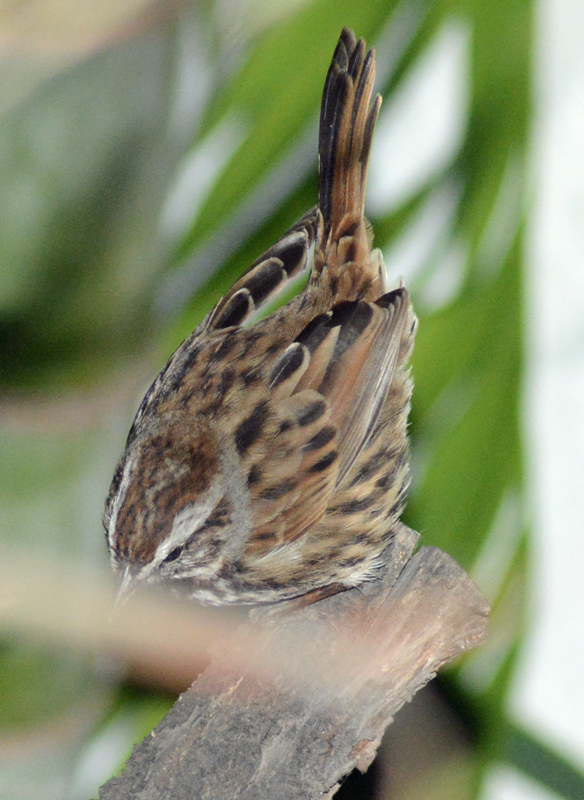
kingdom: Animalia
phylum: Chordata
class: Aves
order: Passeriformes
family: Passerellidae
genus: Melospiza
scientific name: Melospiza melodia
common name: Song sparrow
